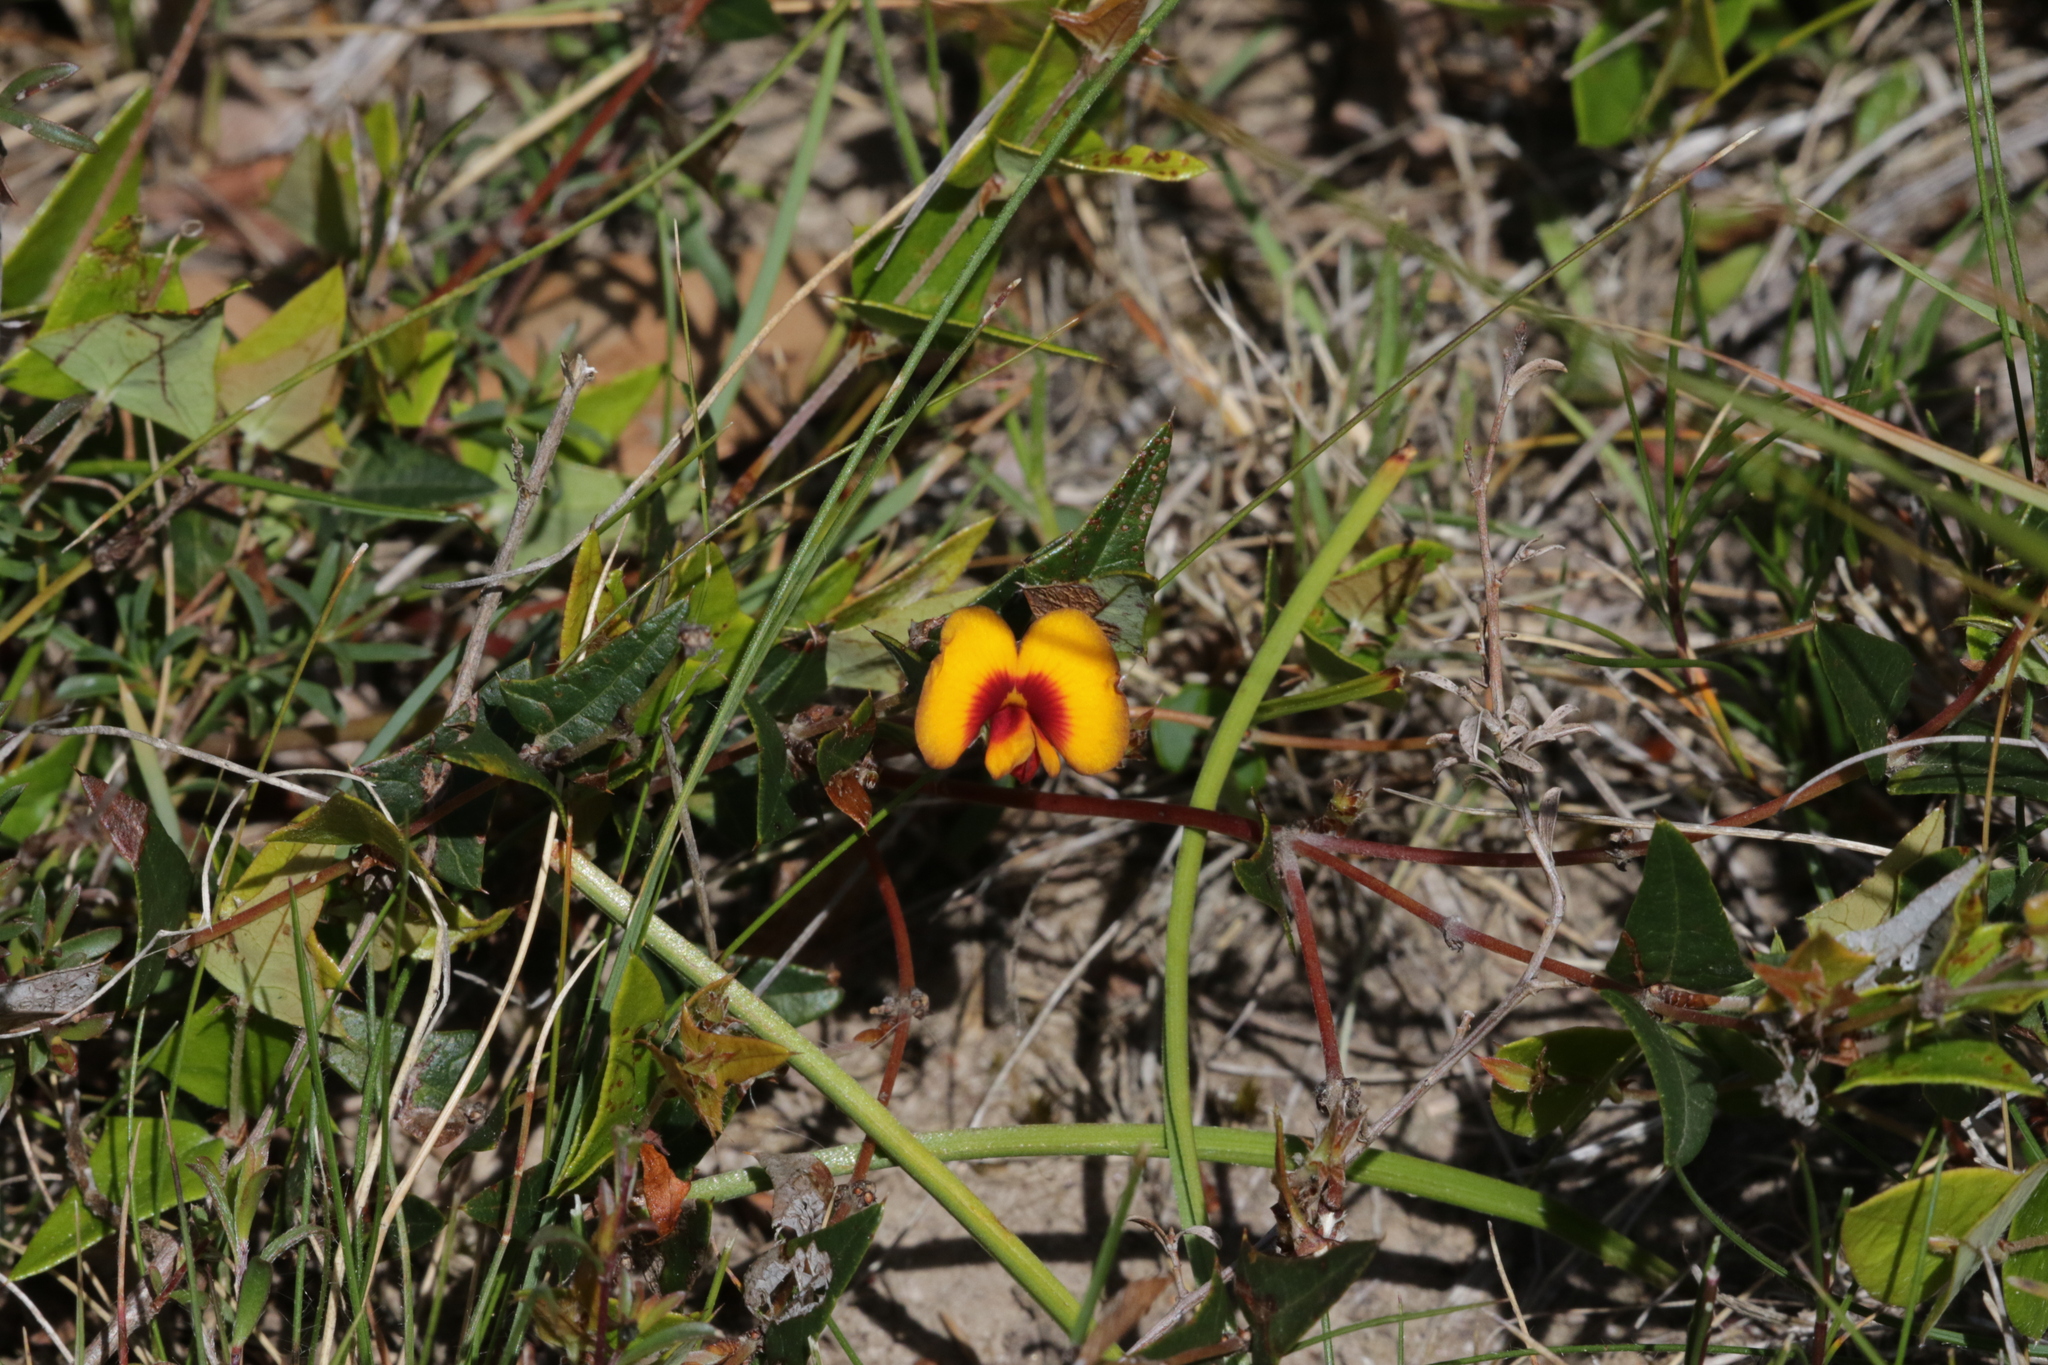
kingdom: Plantae
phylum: Tracheophyta
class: Magnoliopsida
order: Fabales
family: Fabaceae
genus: Platylobium
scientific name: Platylobium obtusangulum
